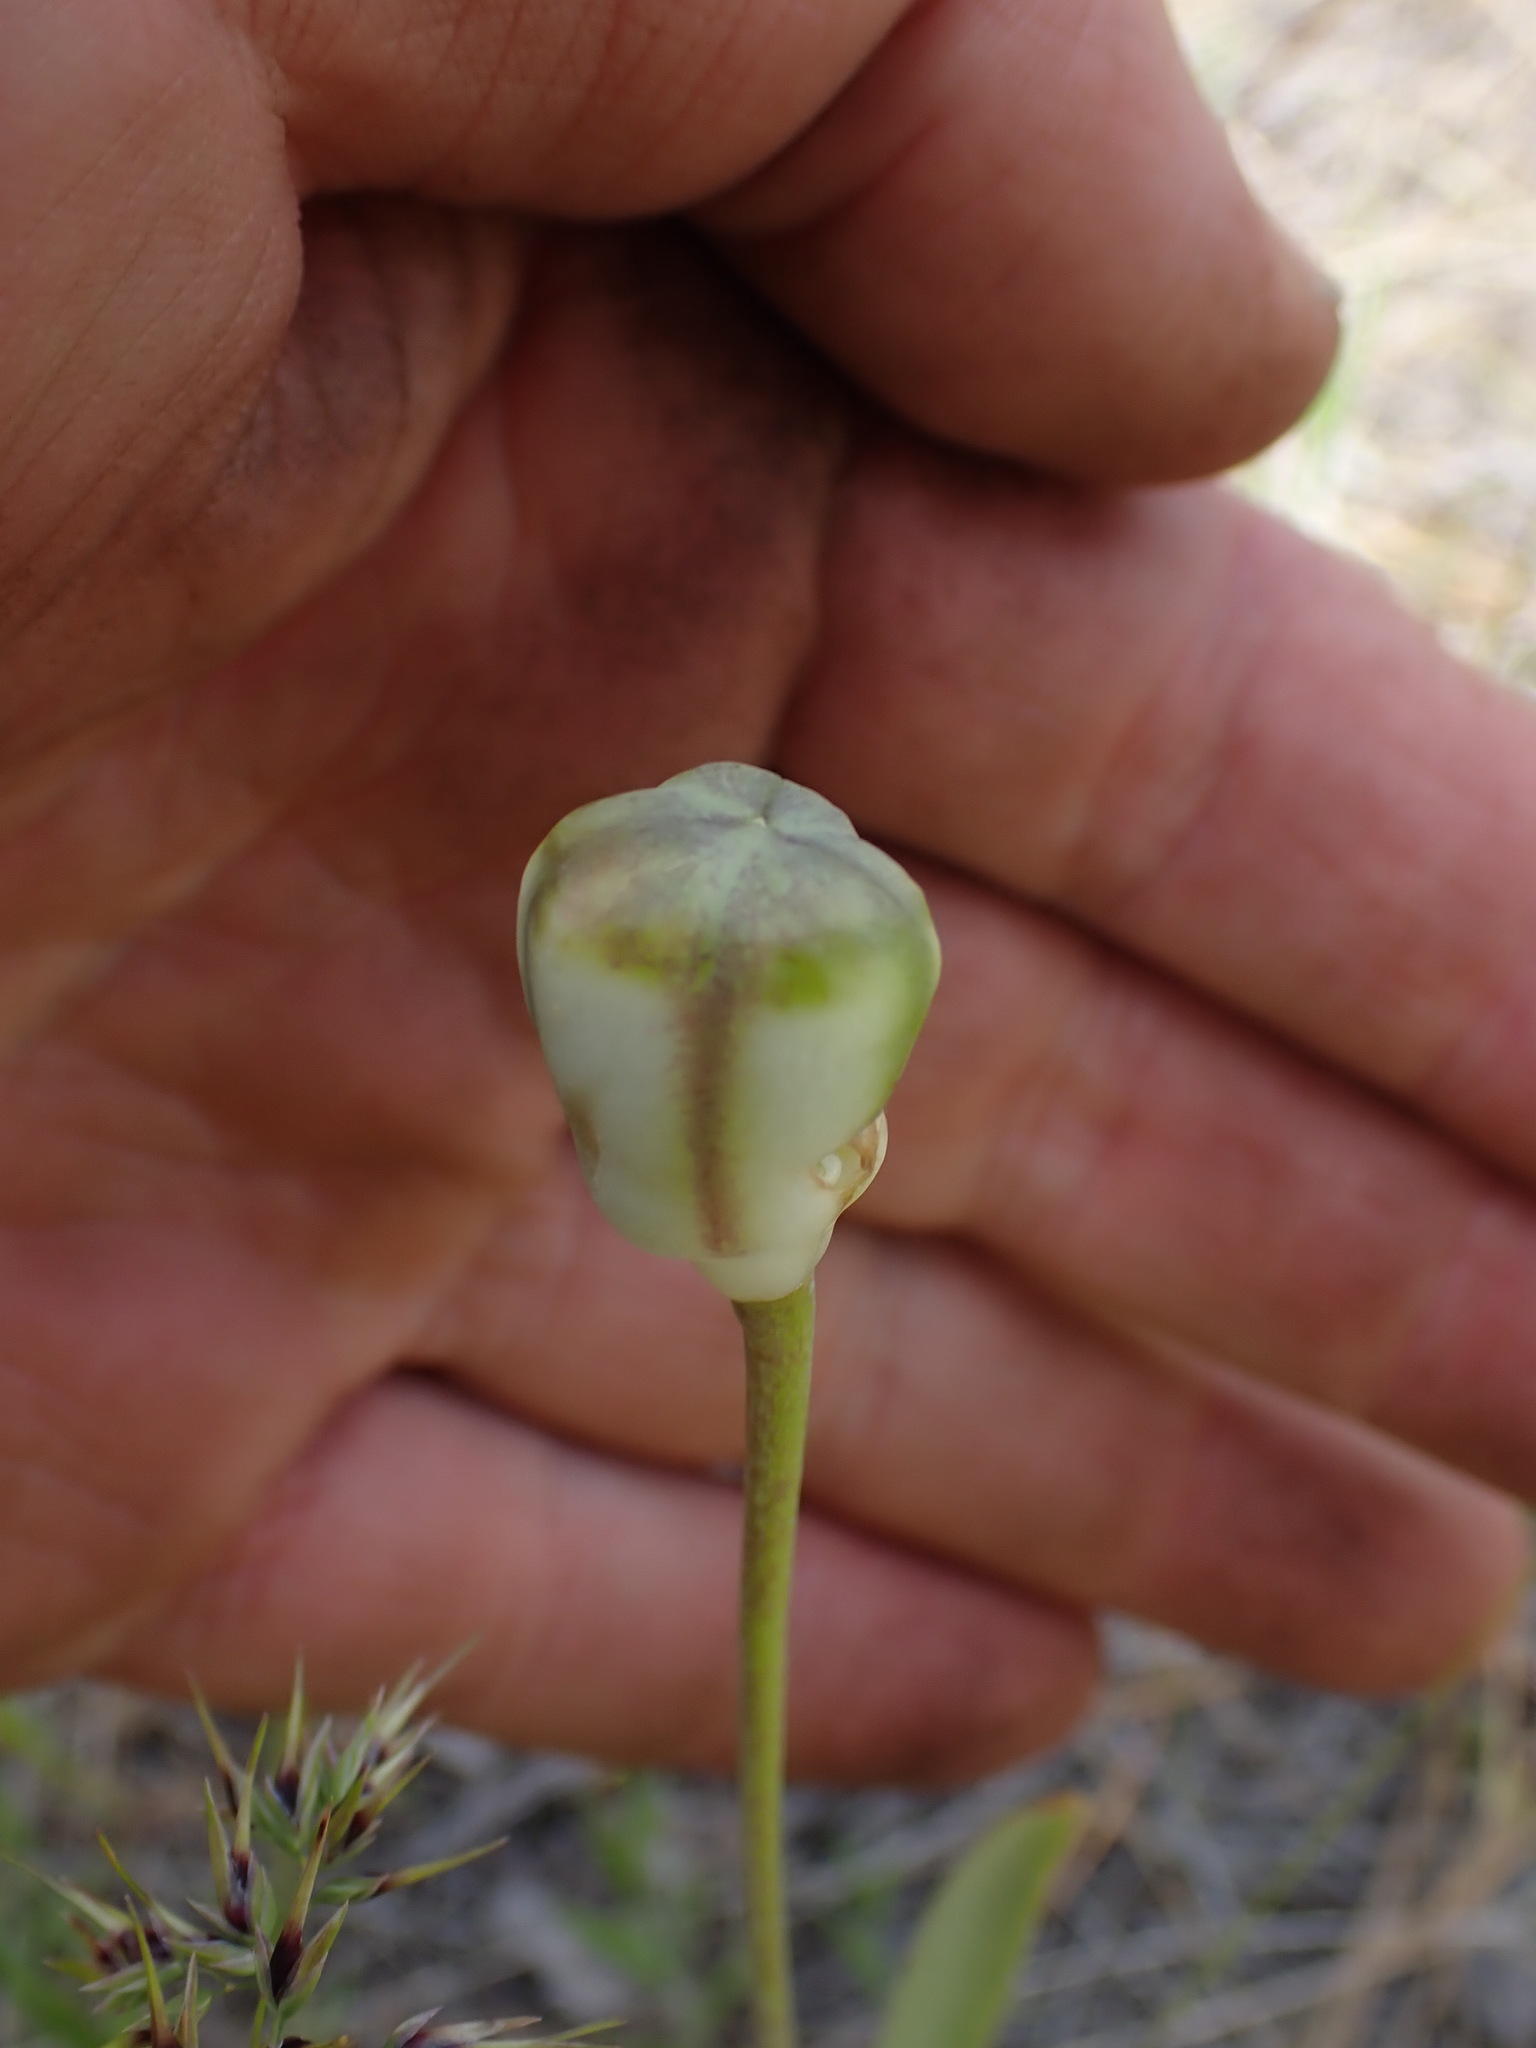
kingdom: Plantae
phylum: Tracheophyta
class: Liliopsida
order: Liliales
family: Liliaceae
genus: Fritillaria
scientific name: Fritillaria pudica
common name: Yellow fritillary
